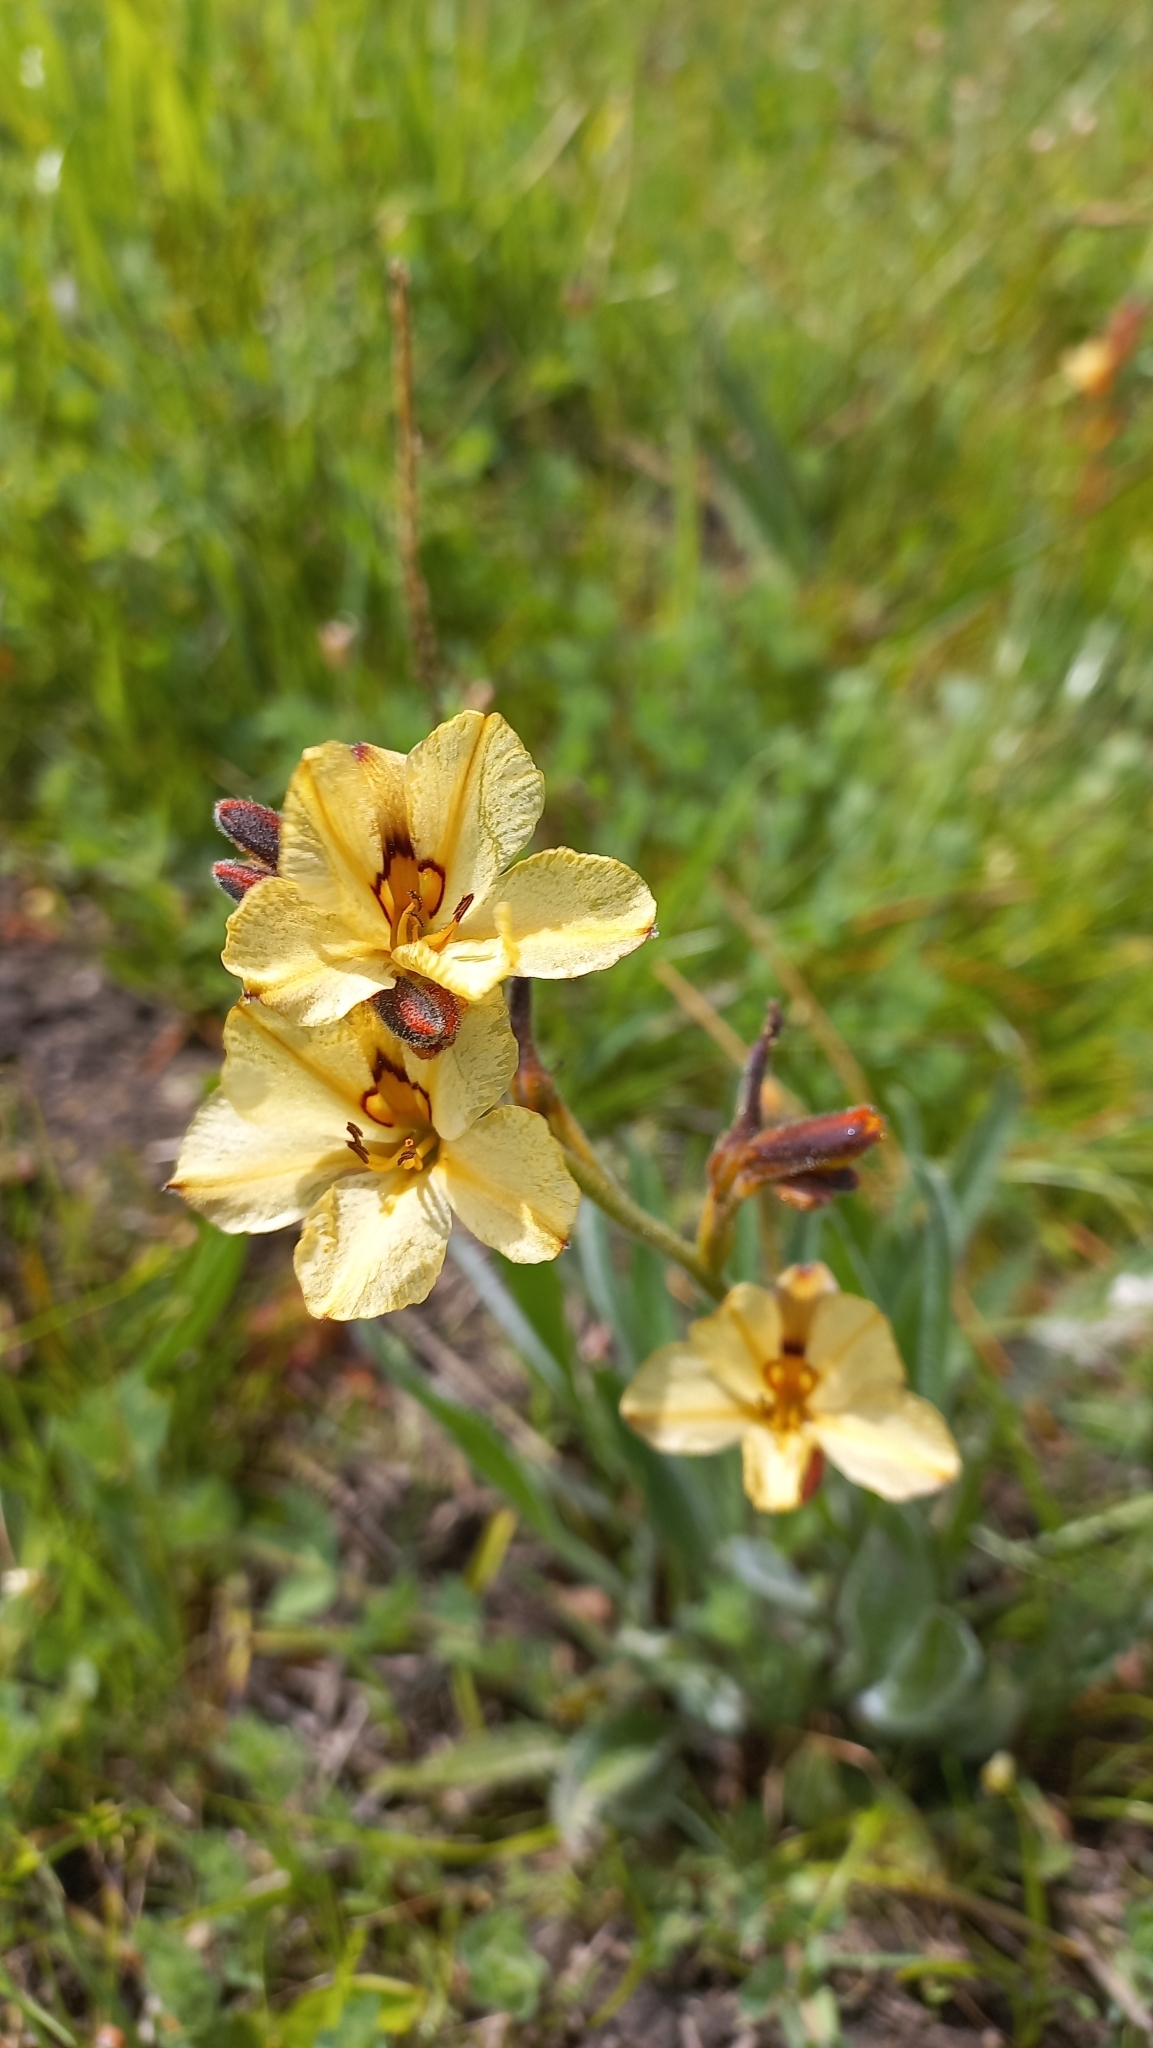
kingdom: Plantae
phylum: Tracheophyta
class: Liliopsida
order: Commelinales
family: Haemodoraceae
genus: Wachendorfia
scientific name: Wachendorfia brachyandra
